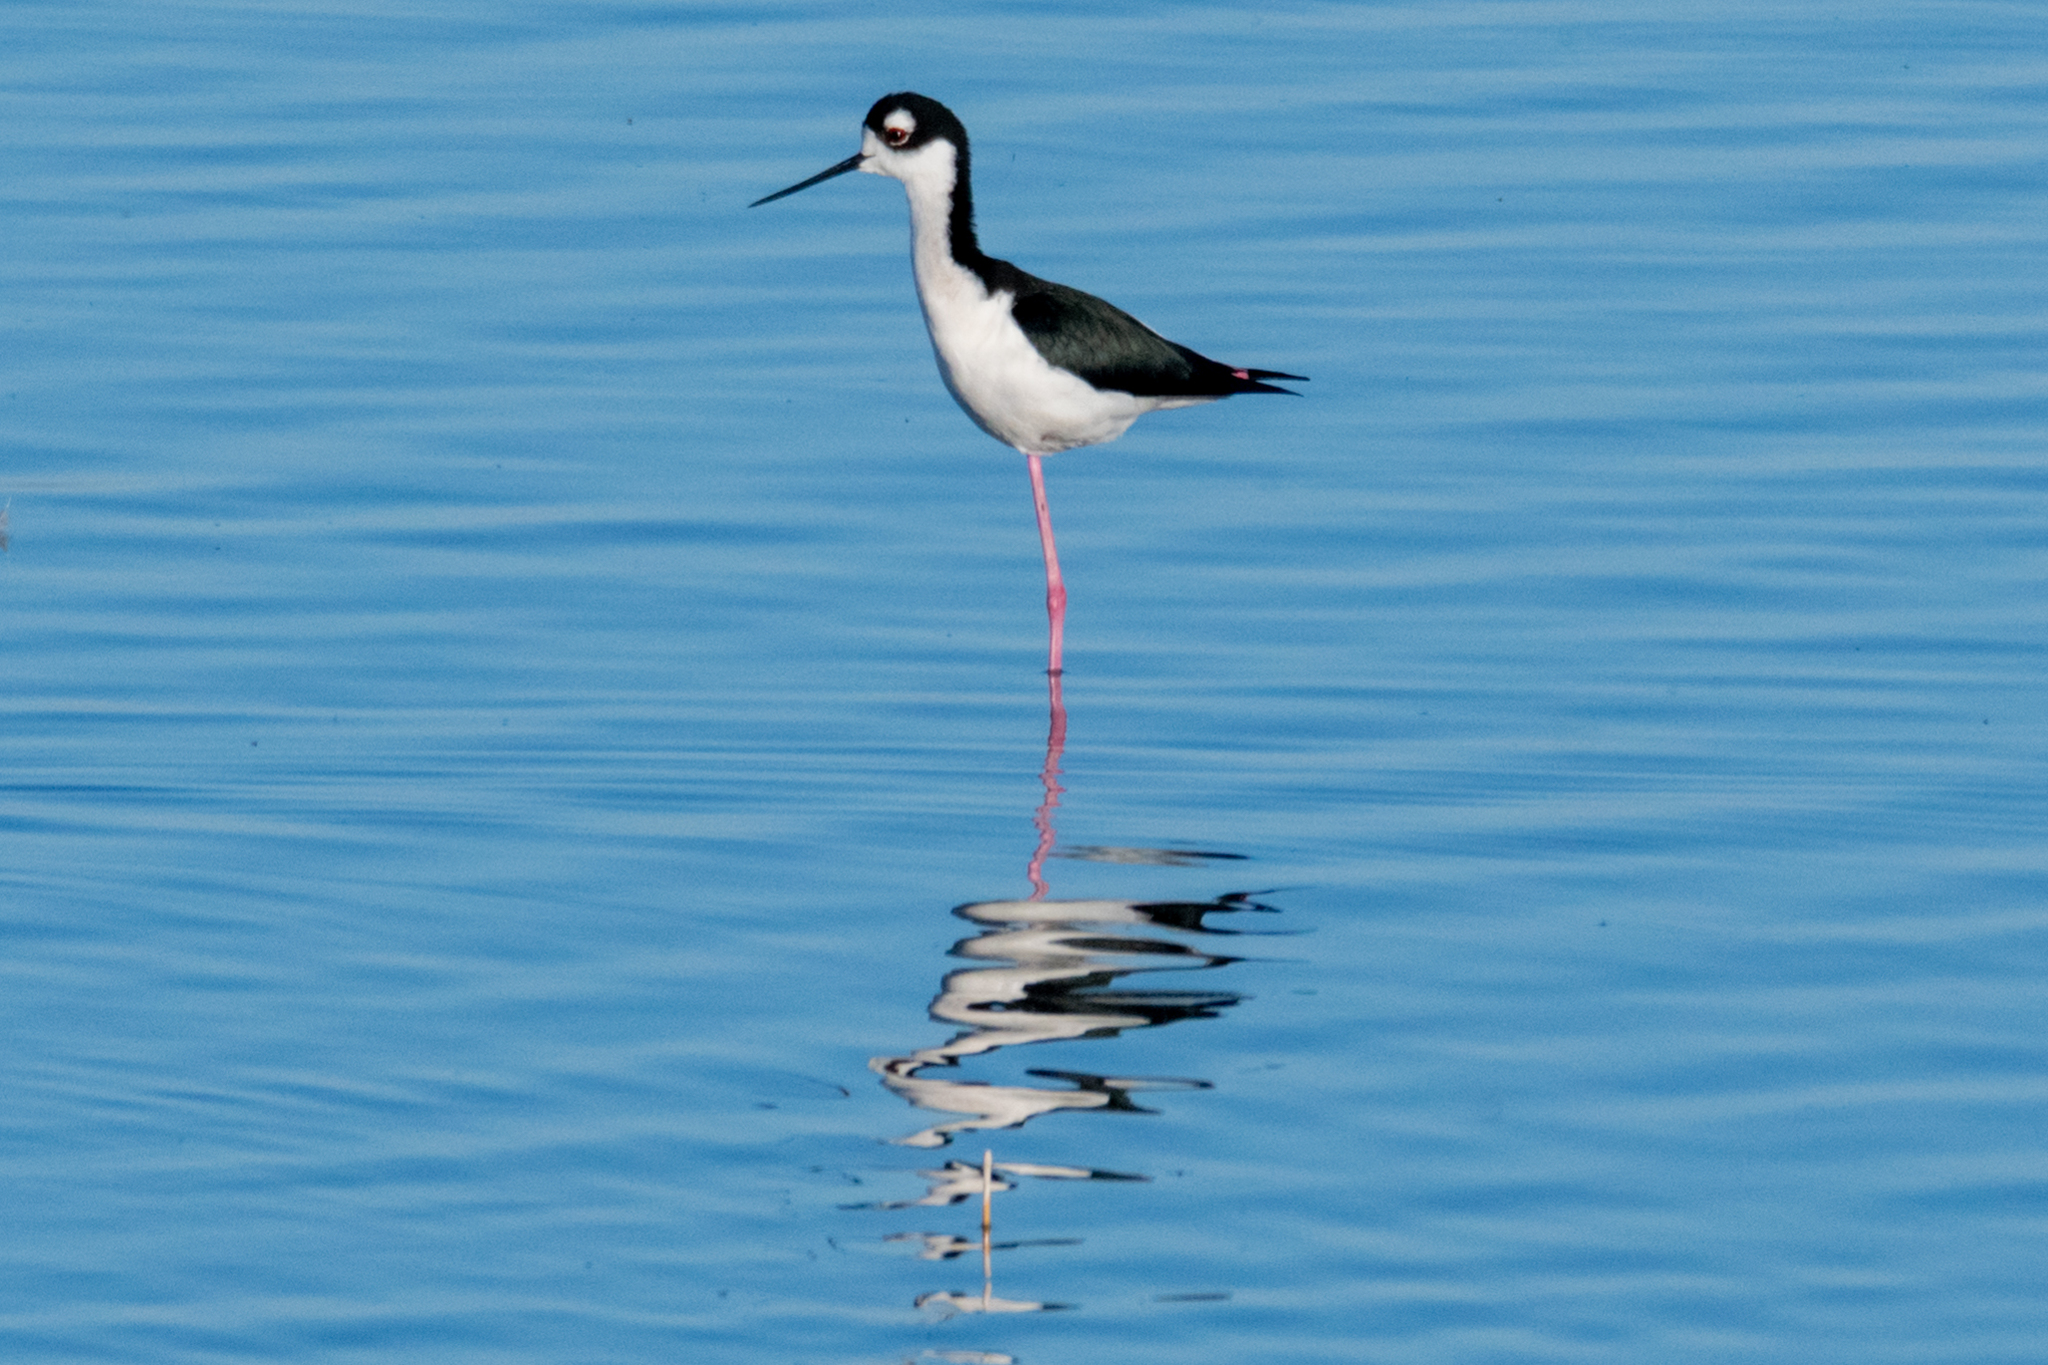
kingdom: Animalia
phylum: Chordata
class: Aves
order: Charadriiformes
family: Recurvirostridae
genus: Himantopus
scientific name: Himantopus mexicanus
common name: Black-necked stilt
